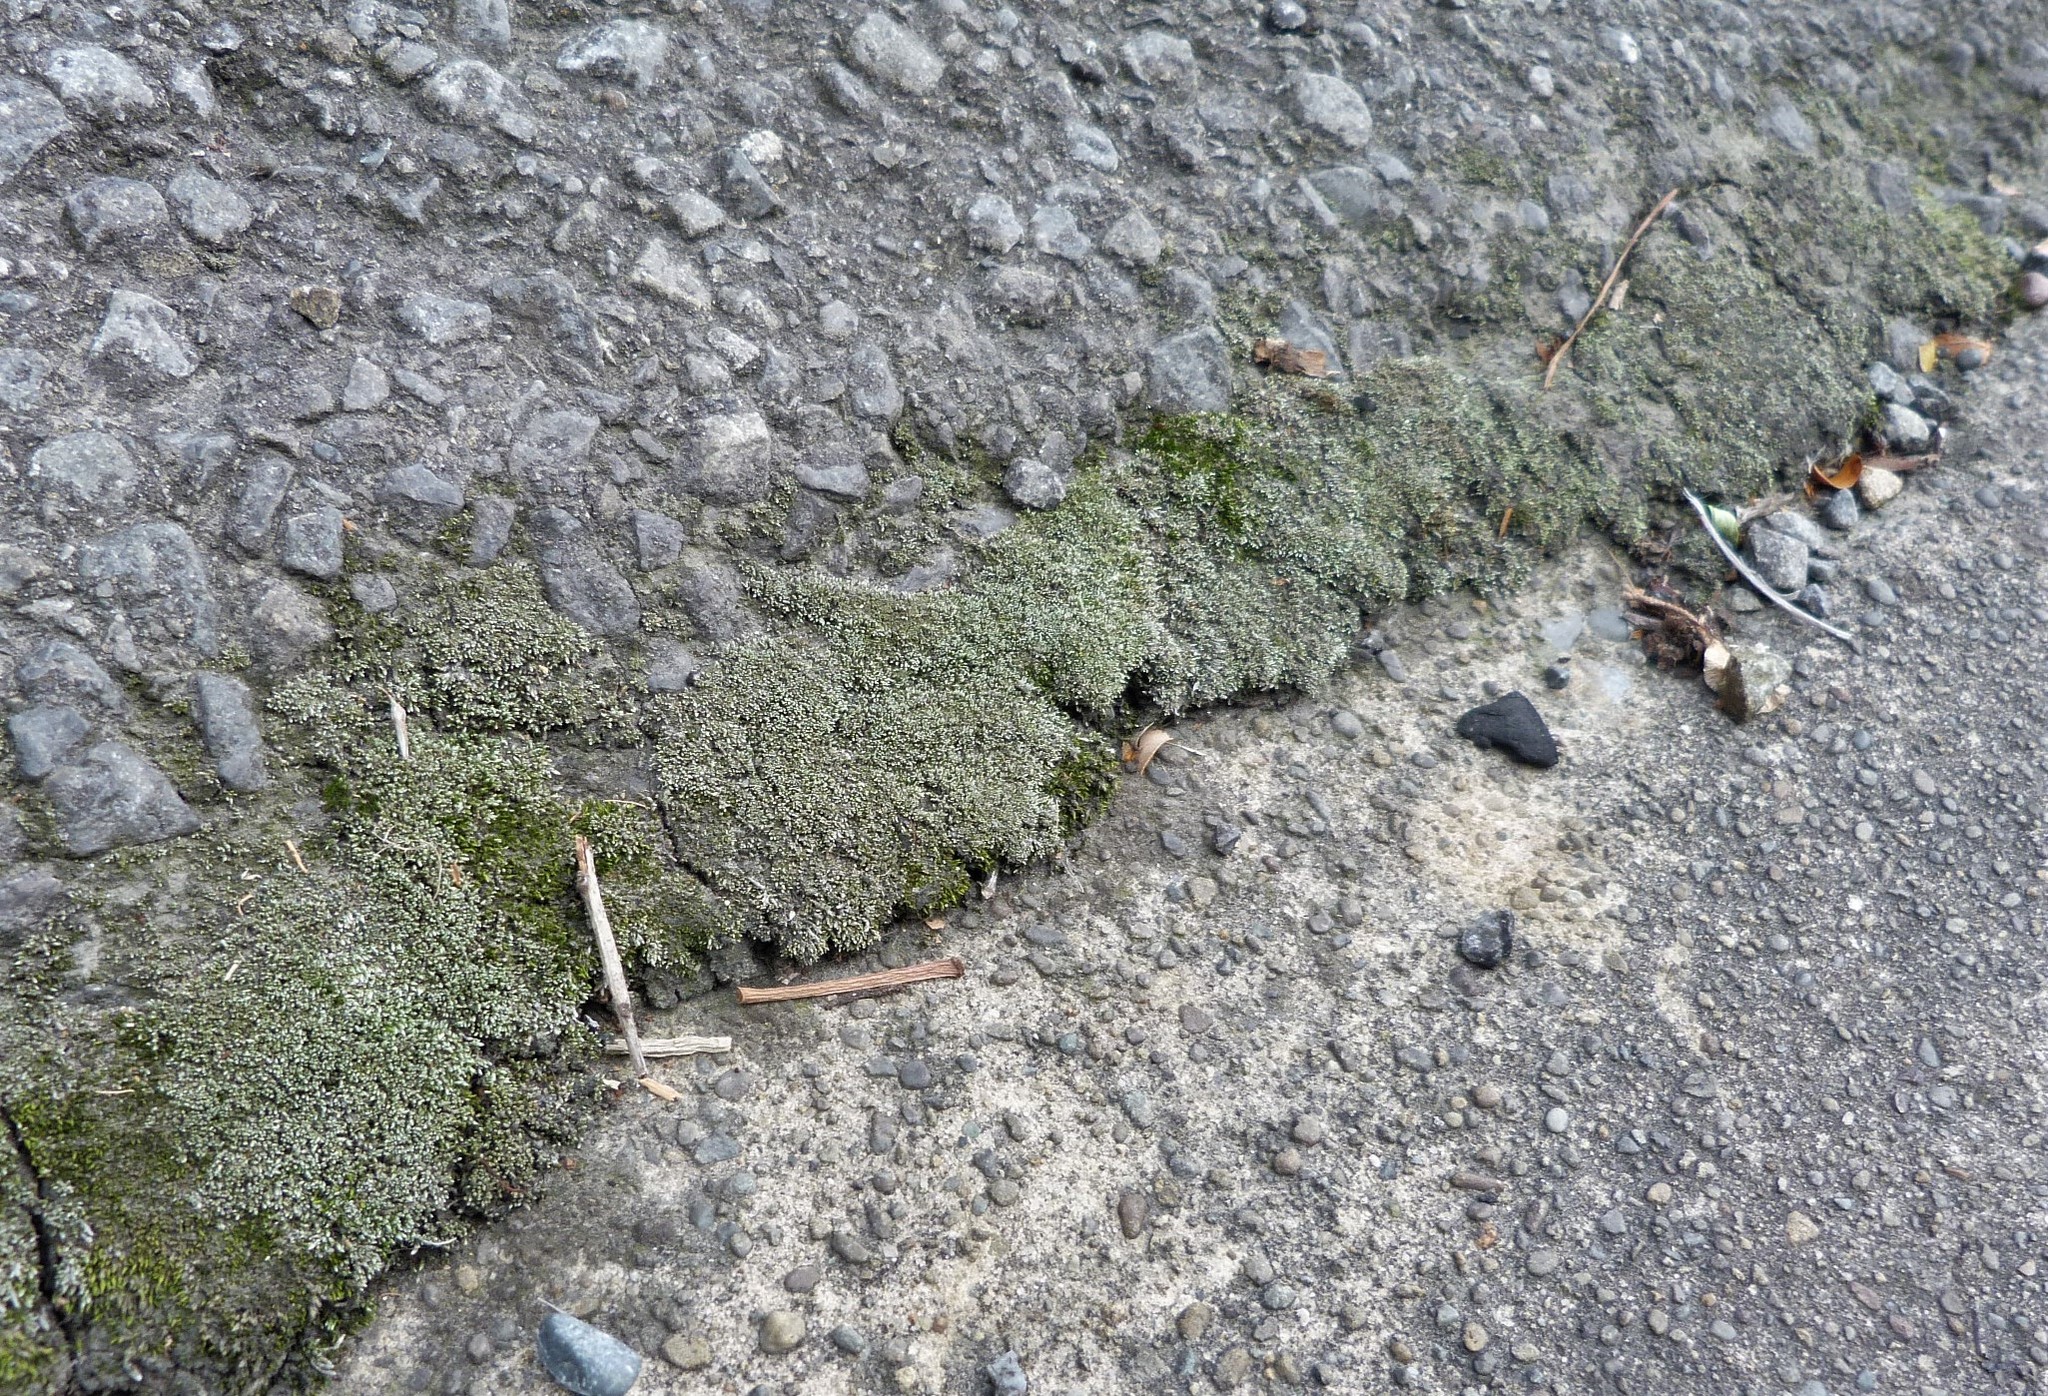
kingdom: Plantae
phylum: Bryophyta
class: Bryopsida
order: Bryales
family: Bryaceae
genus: Bryum
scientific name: Bryum argenteum
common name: Silver-moss
